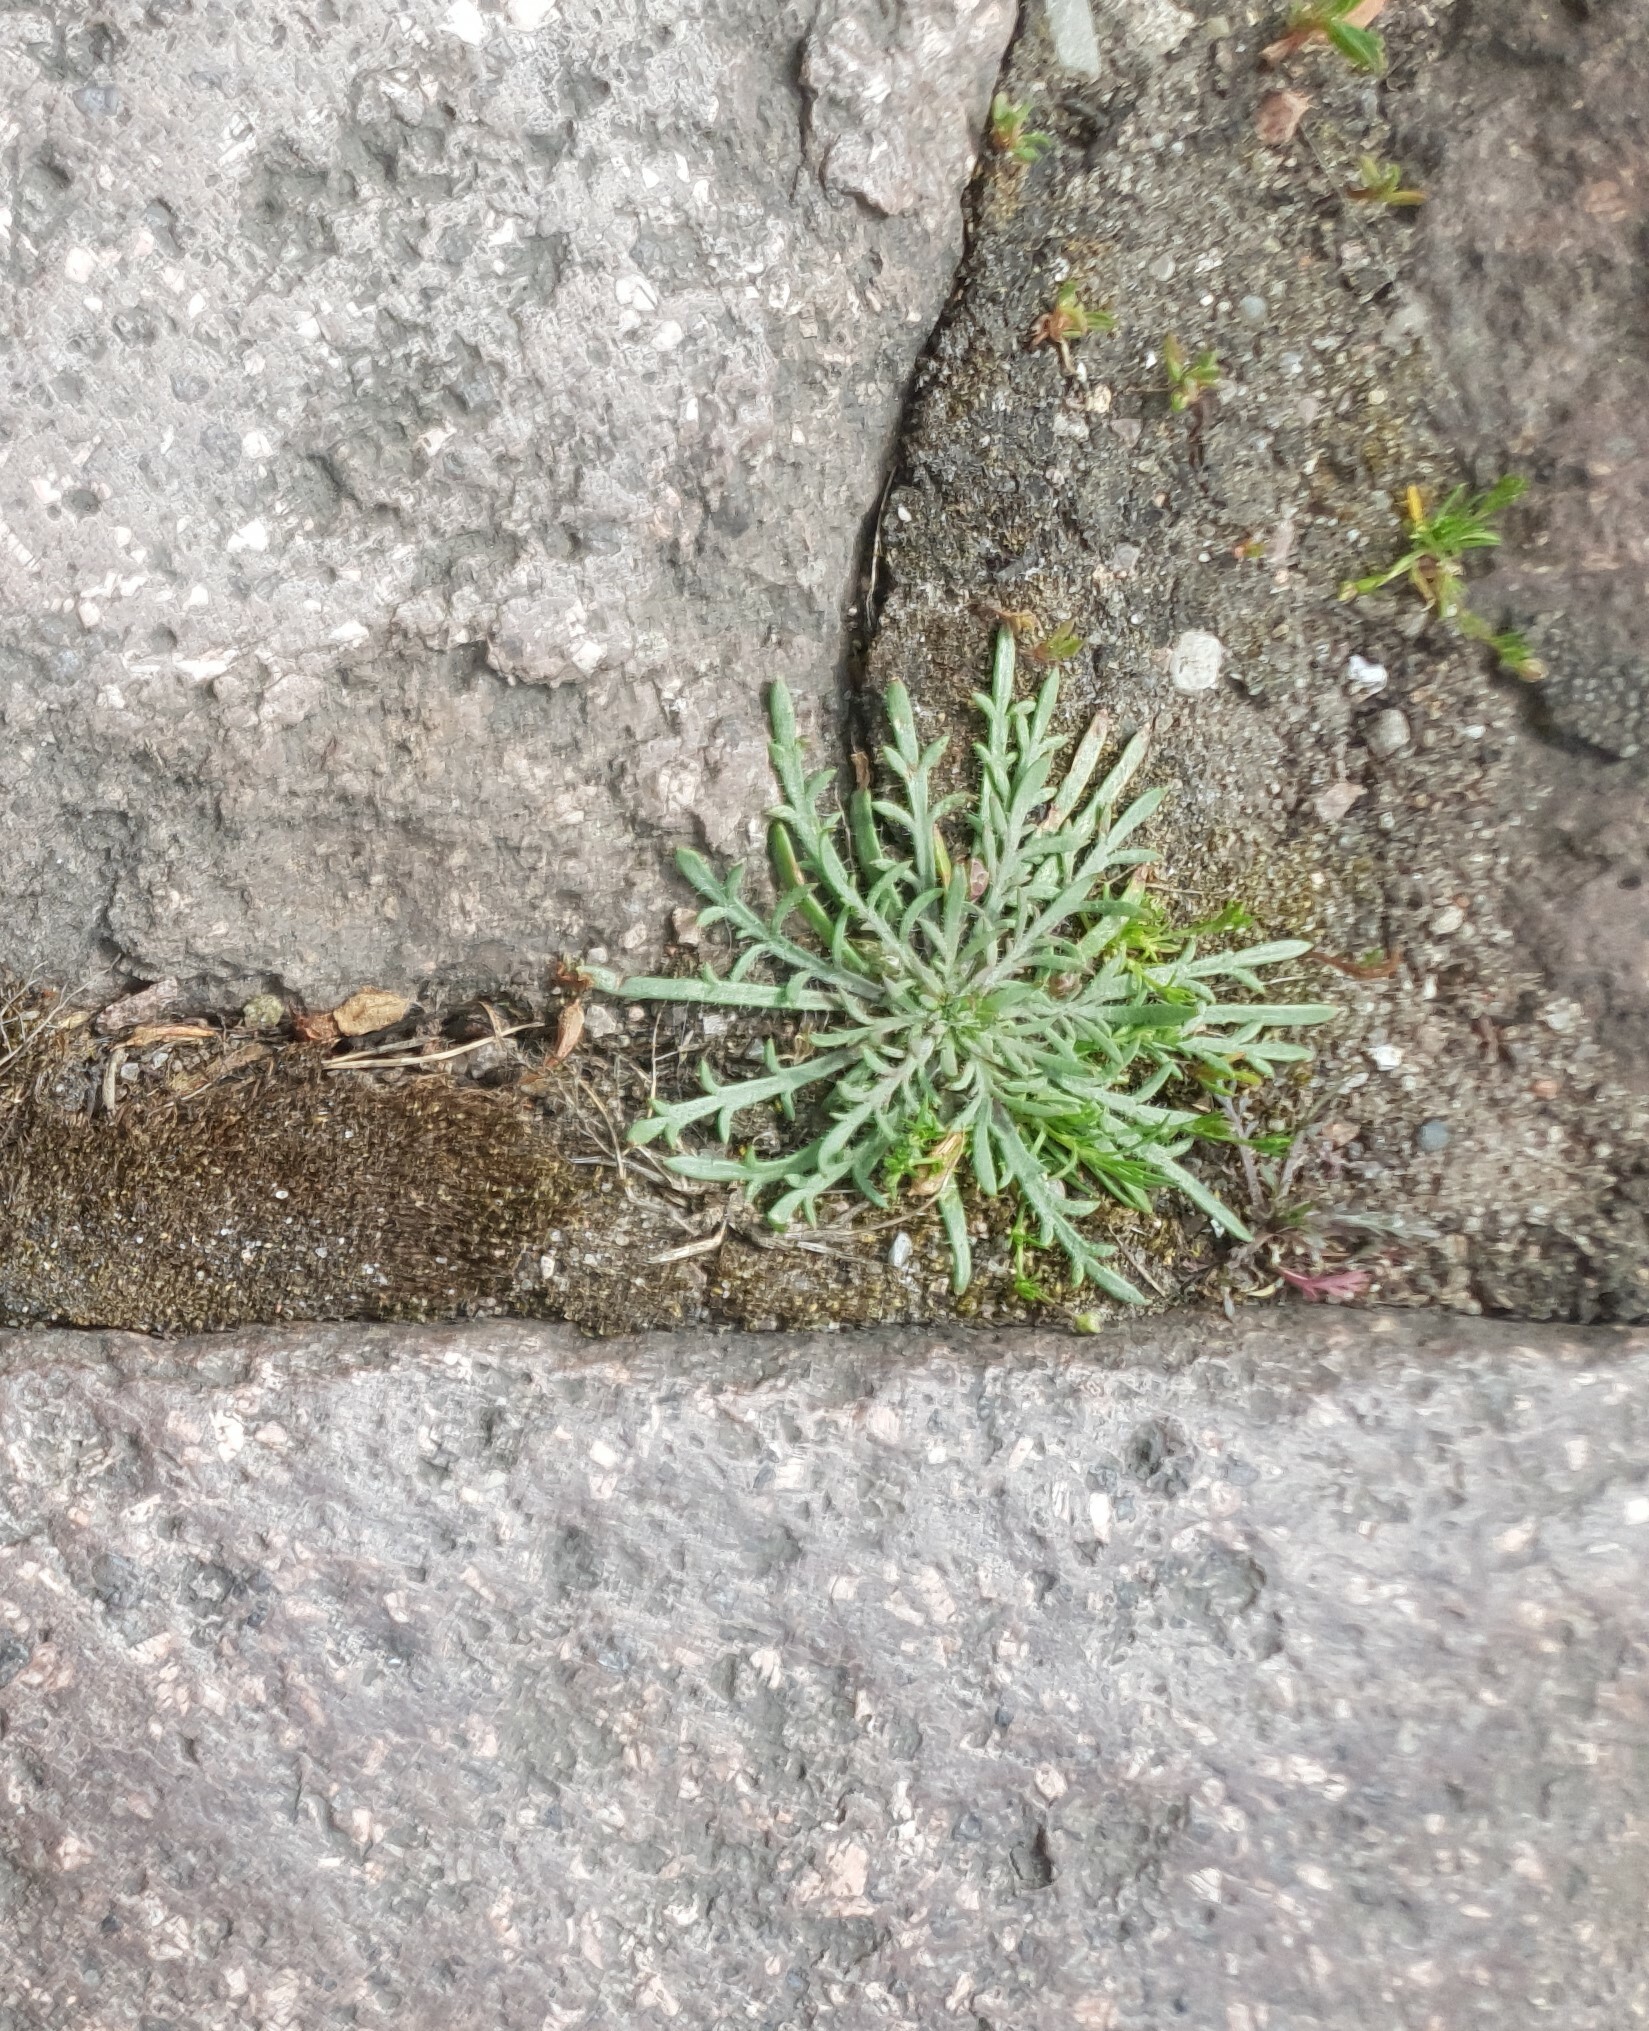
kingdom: Plantae
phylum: Tracheophyta
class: Magnoliopsida
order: Lamiales
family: Plantaginaceae
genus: Plantago
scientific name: Plantago coronopus
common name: Buck's-horn plantain
